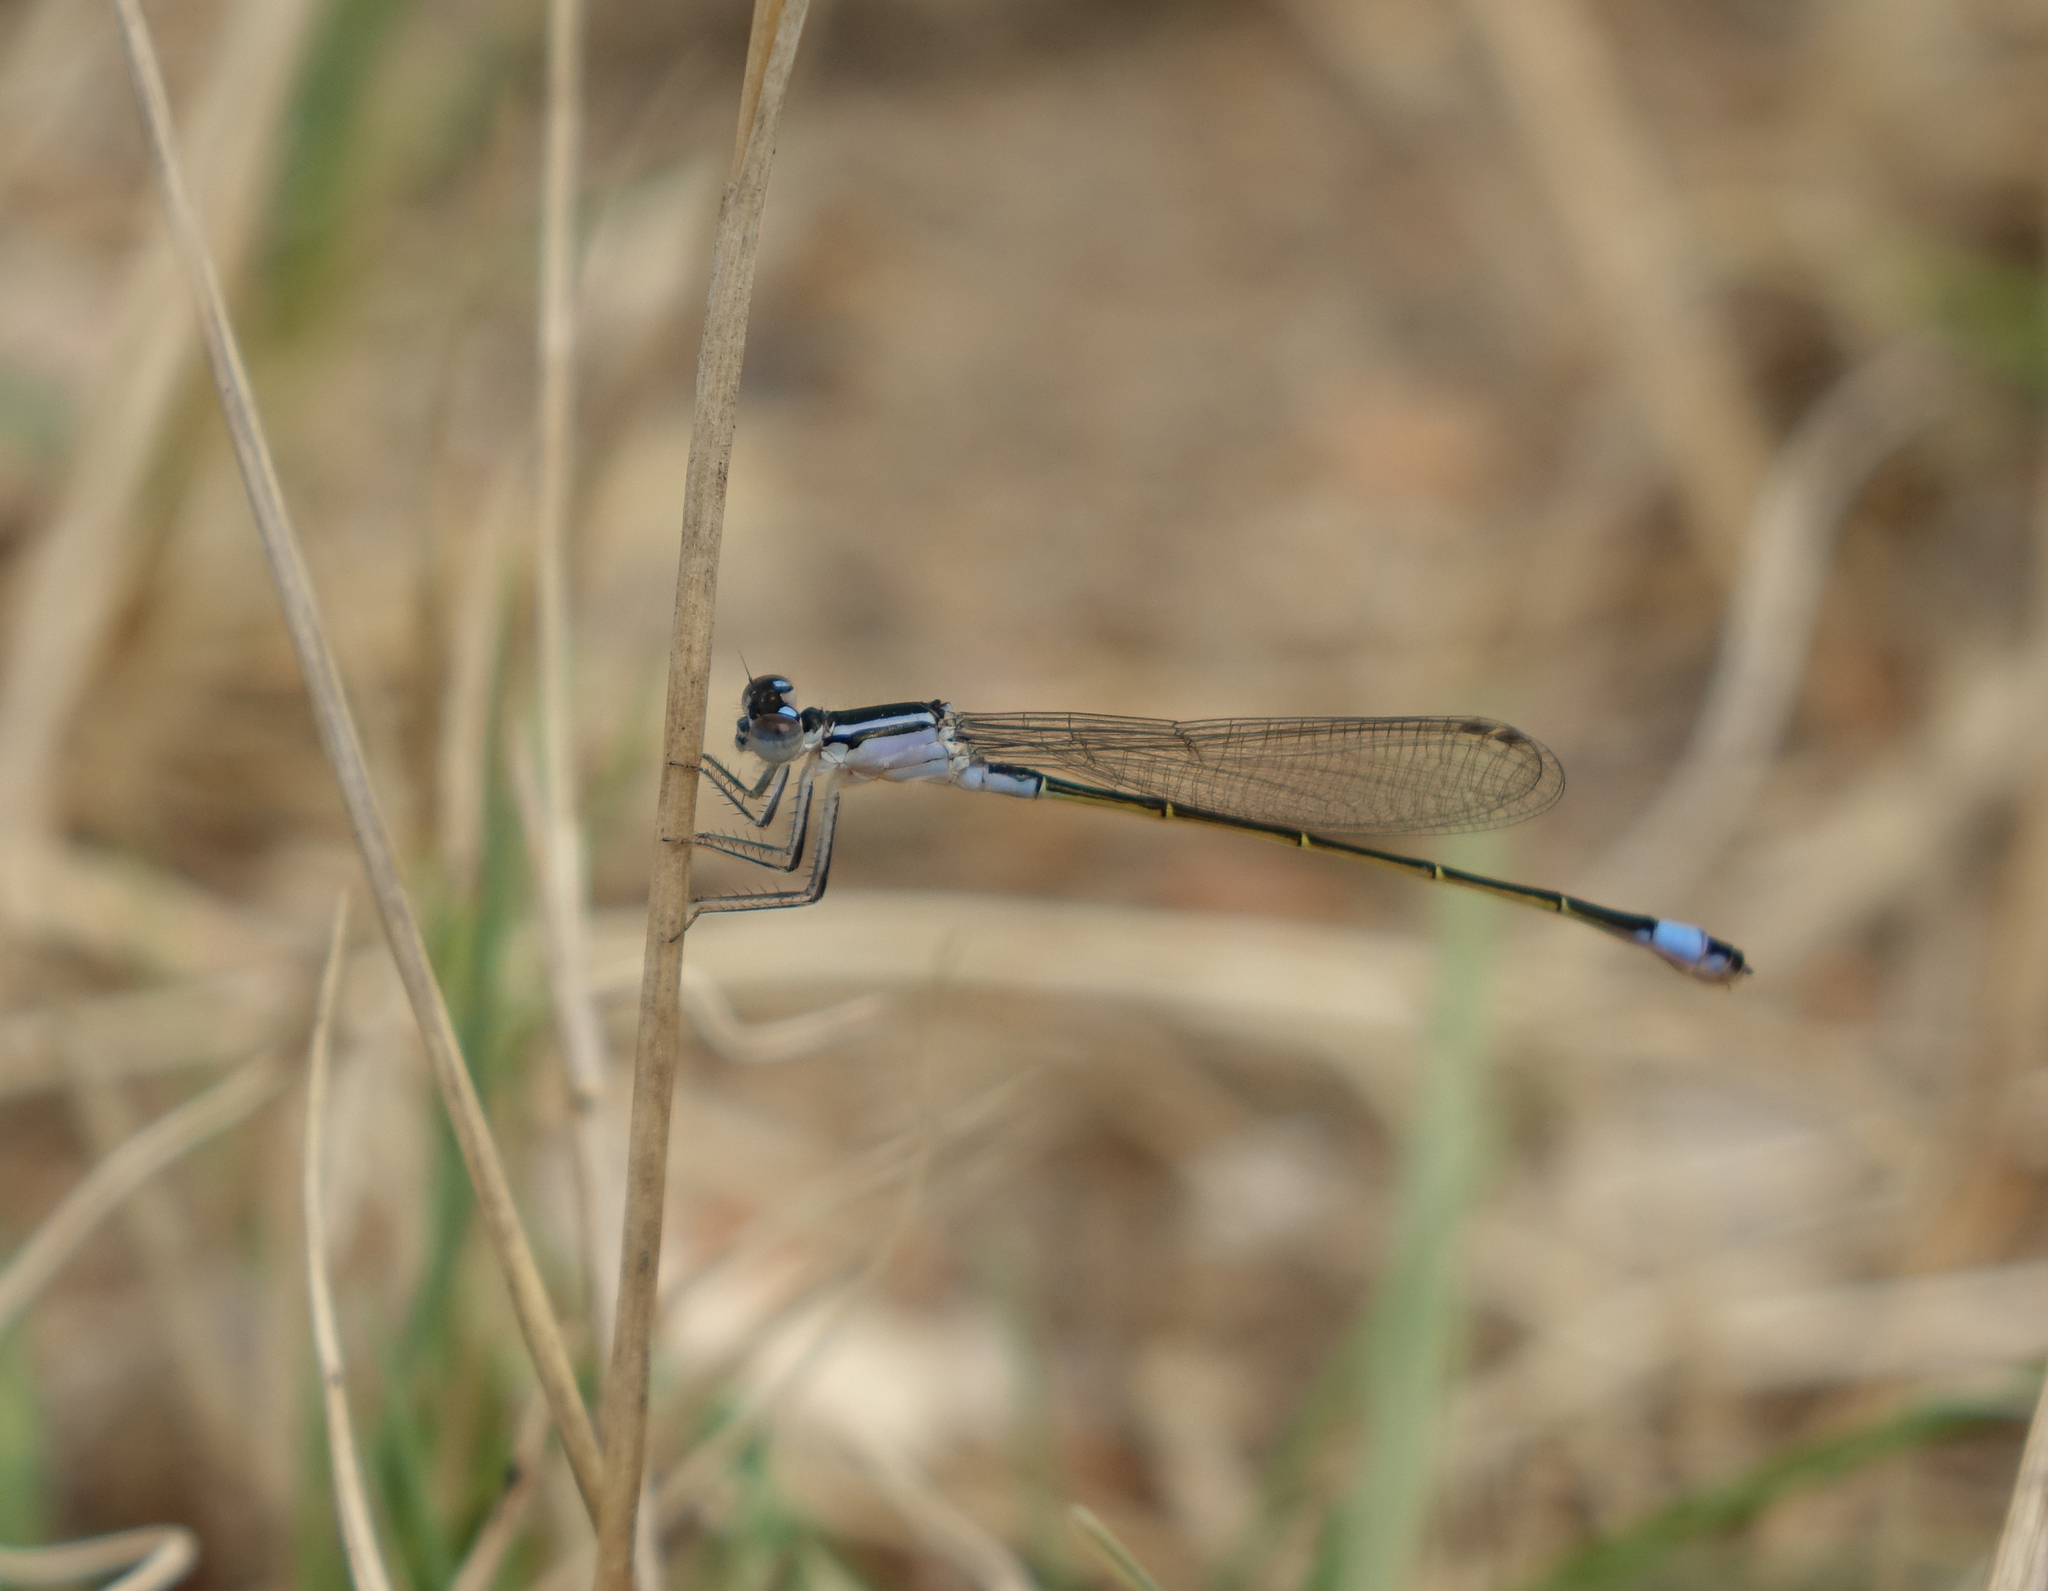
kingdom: Animalia
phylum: Arthropoda
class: Insecta
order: Odonata
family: Coenagrionidae
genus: Ischnura
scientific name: Ischnura elegans
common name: Blue-tailed damselfly
